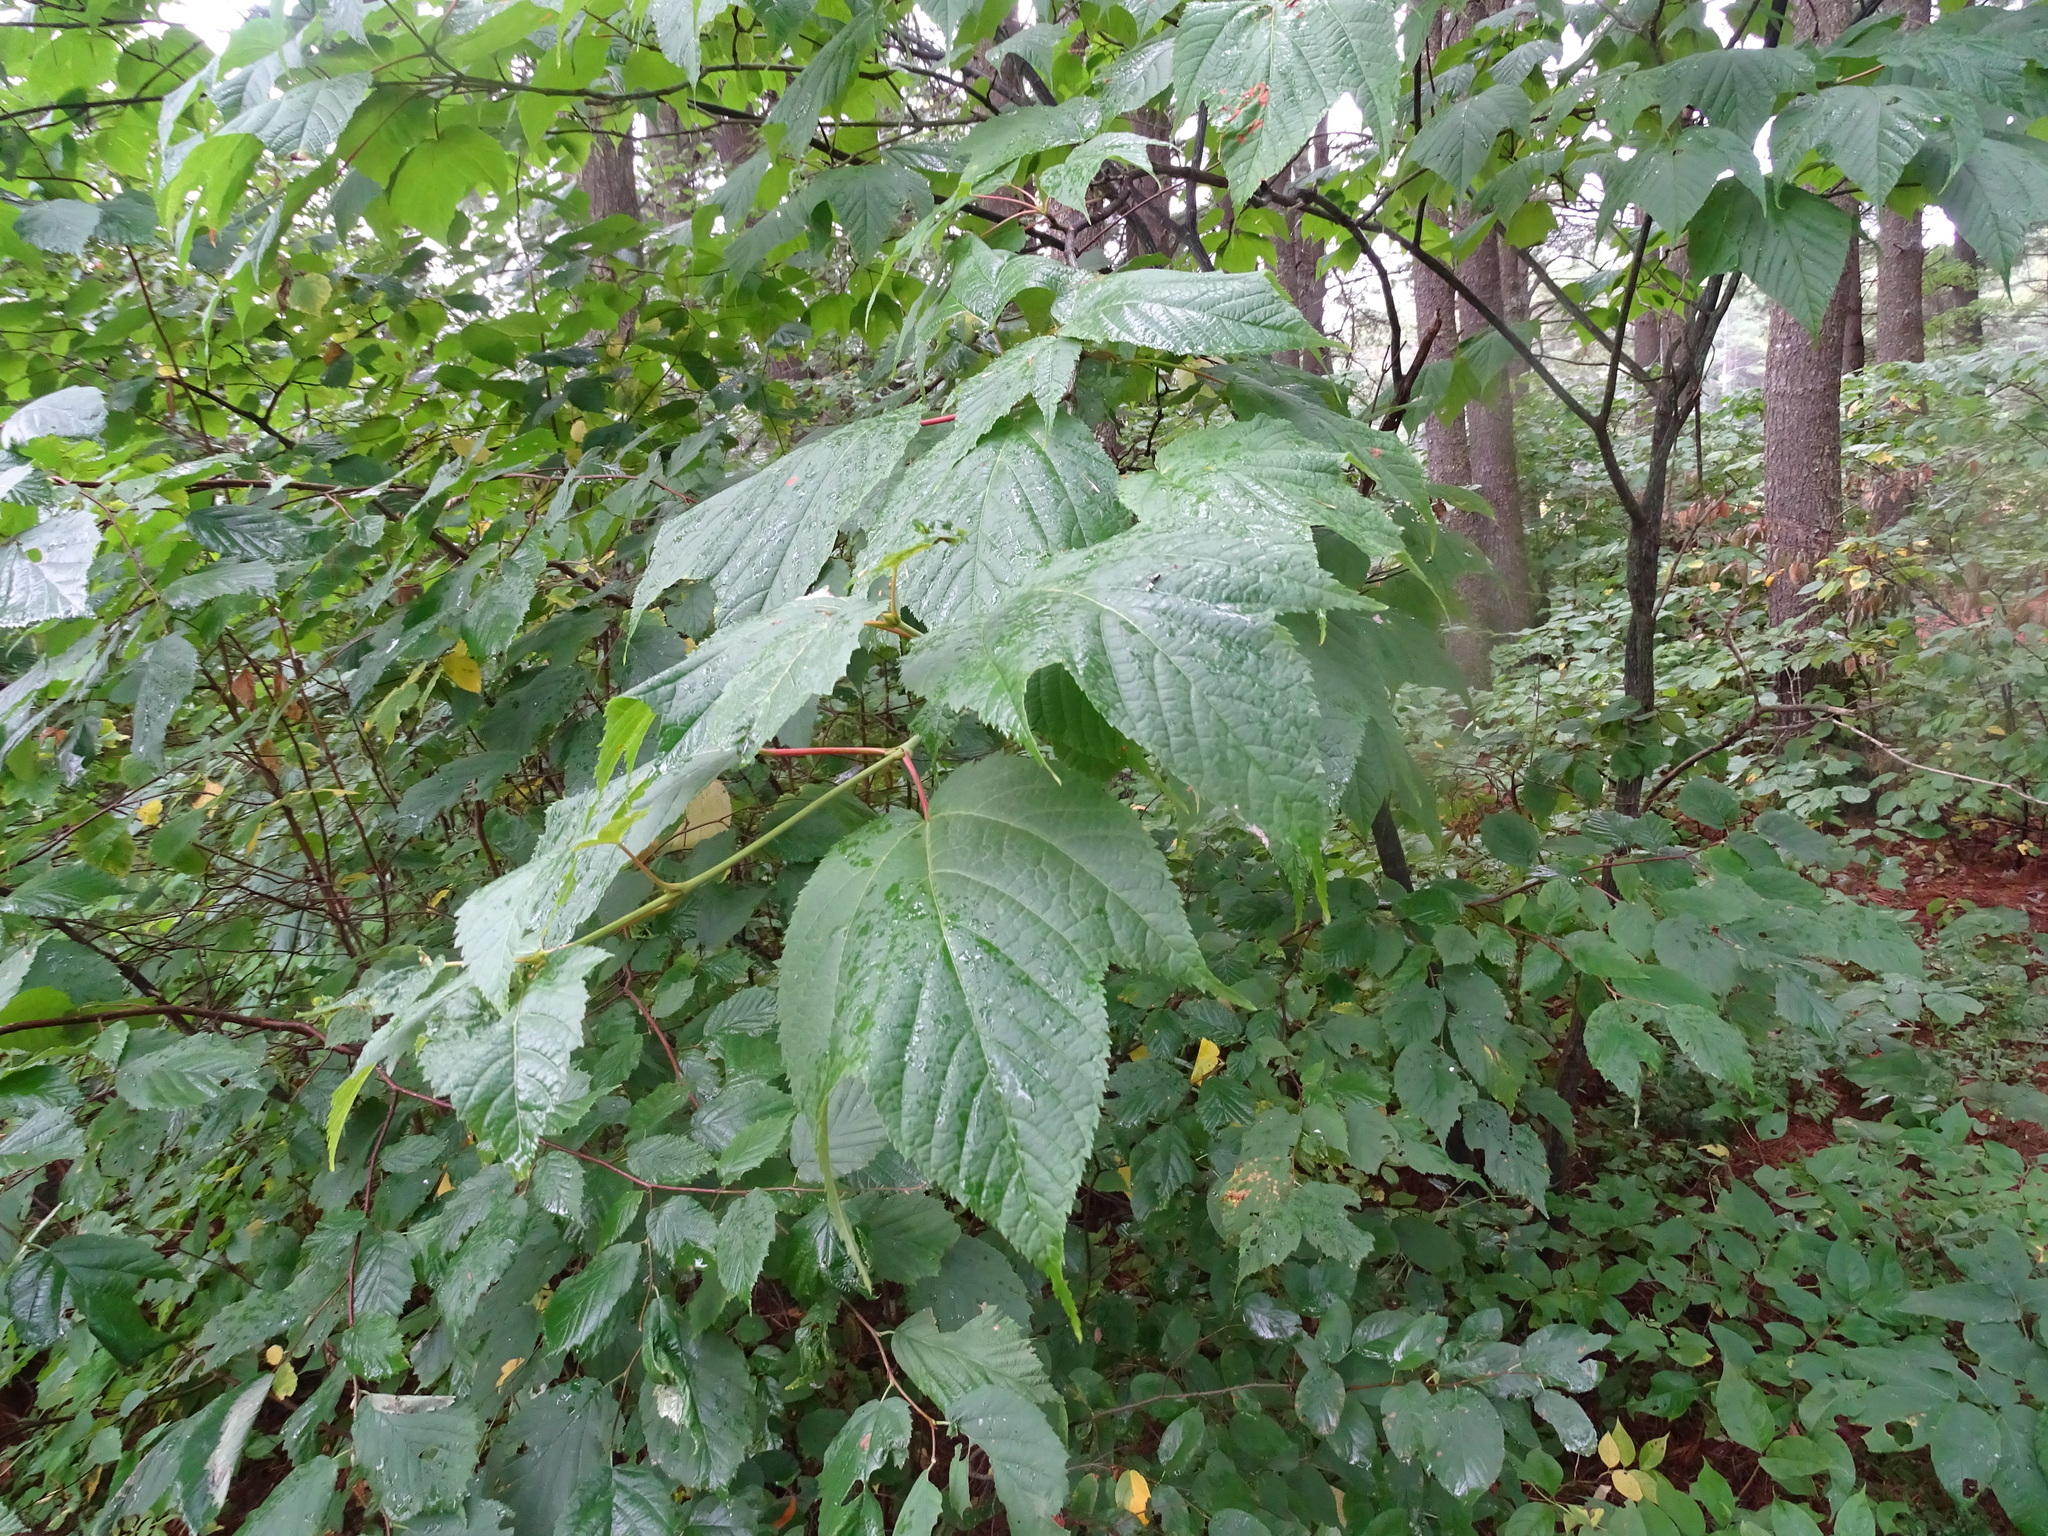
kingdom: Plantae
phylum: Tracheophyta
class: Magnoliopsida
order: Sapindales
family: Sapindaceae
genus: Acer
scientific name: Acer pensylvanicum
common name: Moosewood
